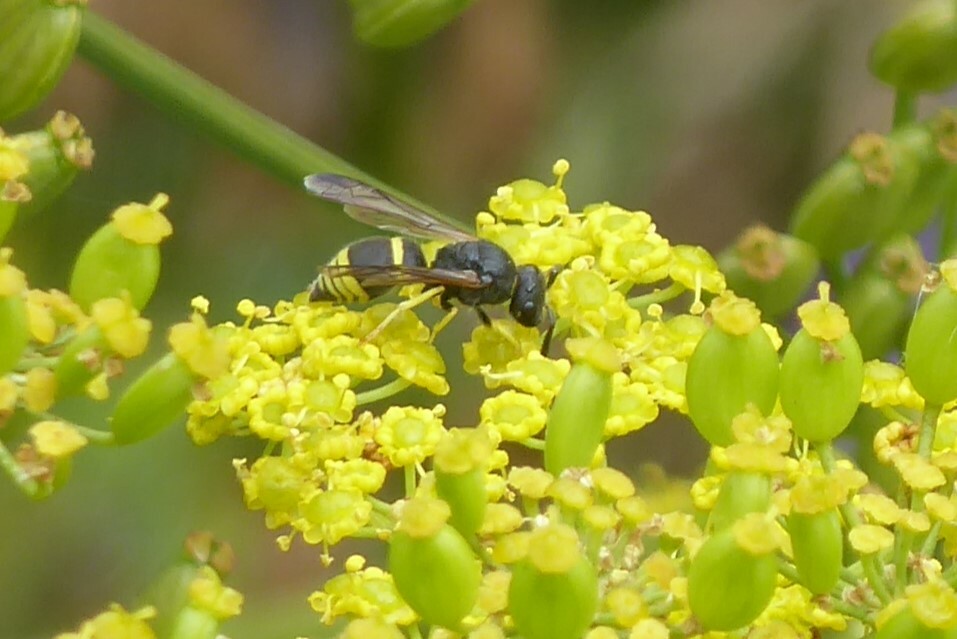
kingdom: Animalia
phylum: Arthropoda
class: Insecta
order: Hymenoptera
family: Vespidae
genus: Ancistrocerus
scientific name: Ancistrocerus gazella
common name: European tube wasp
